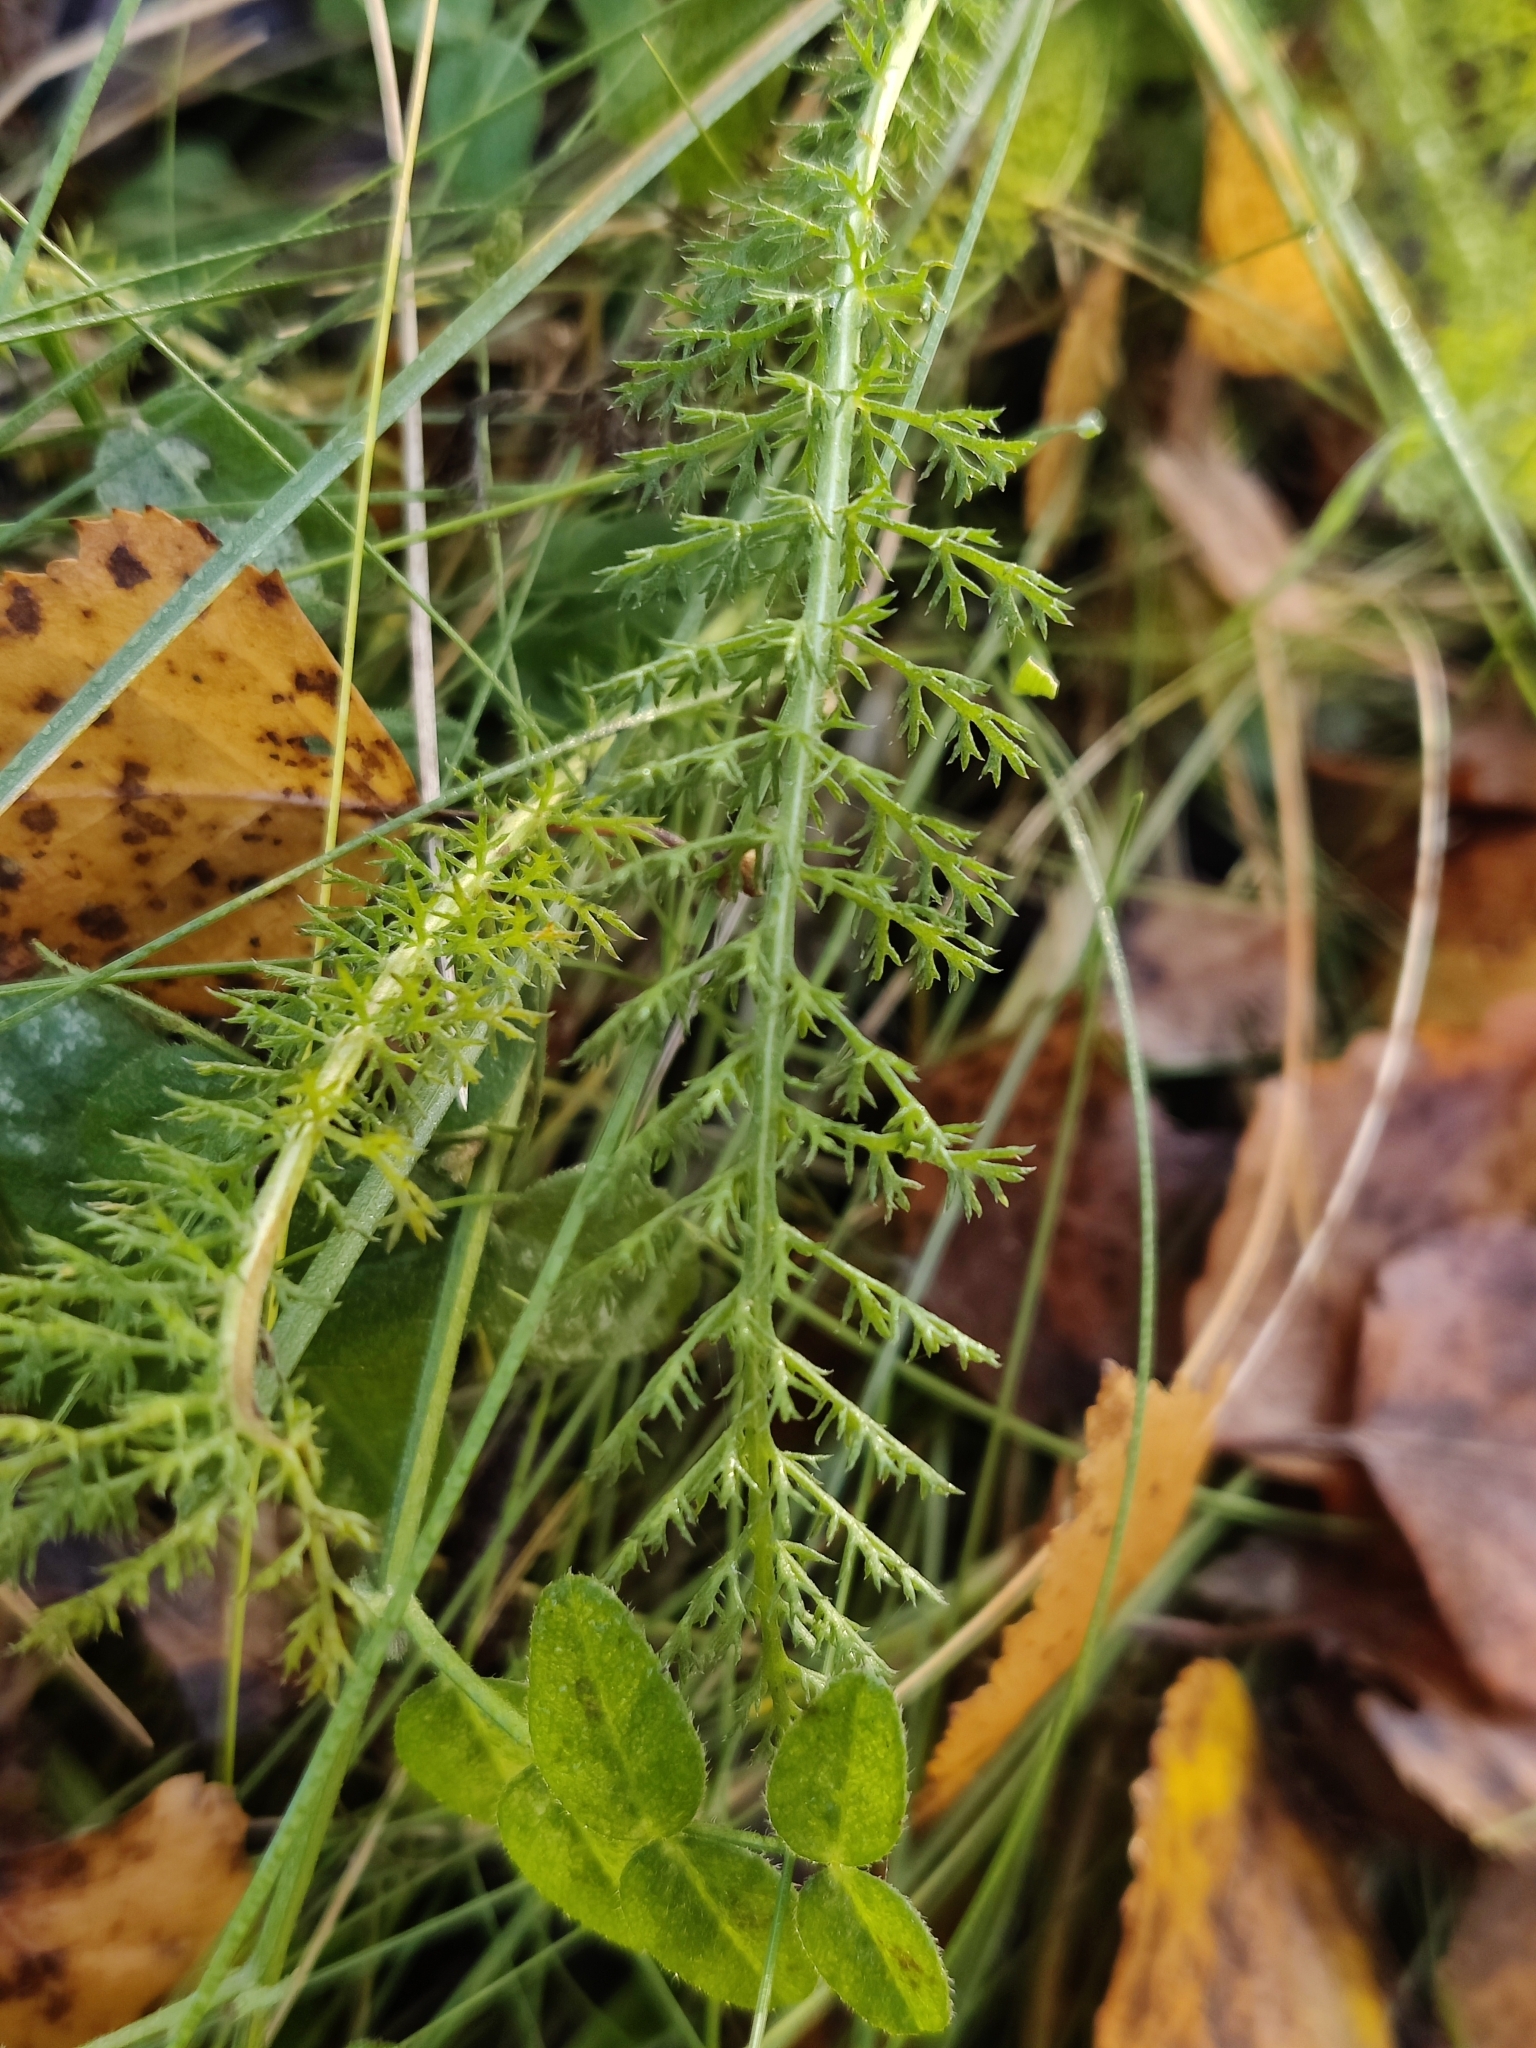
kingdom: Plantae
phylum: Tracheophyta
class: Magnoliopsida
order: Asterales
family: Asteraceae
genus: Achillea
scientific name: Achillea millefolium
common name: Yarrow
